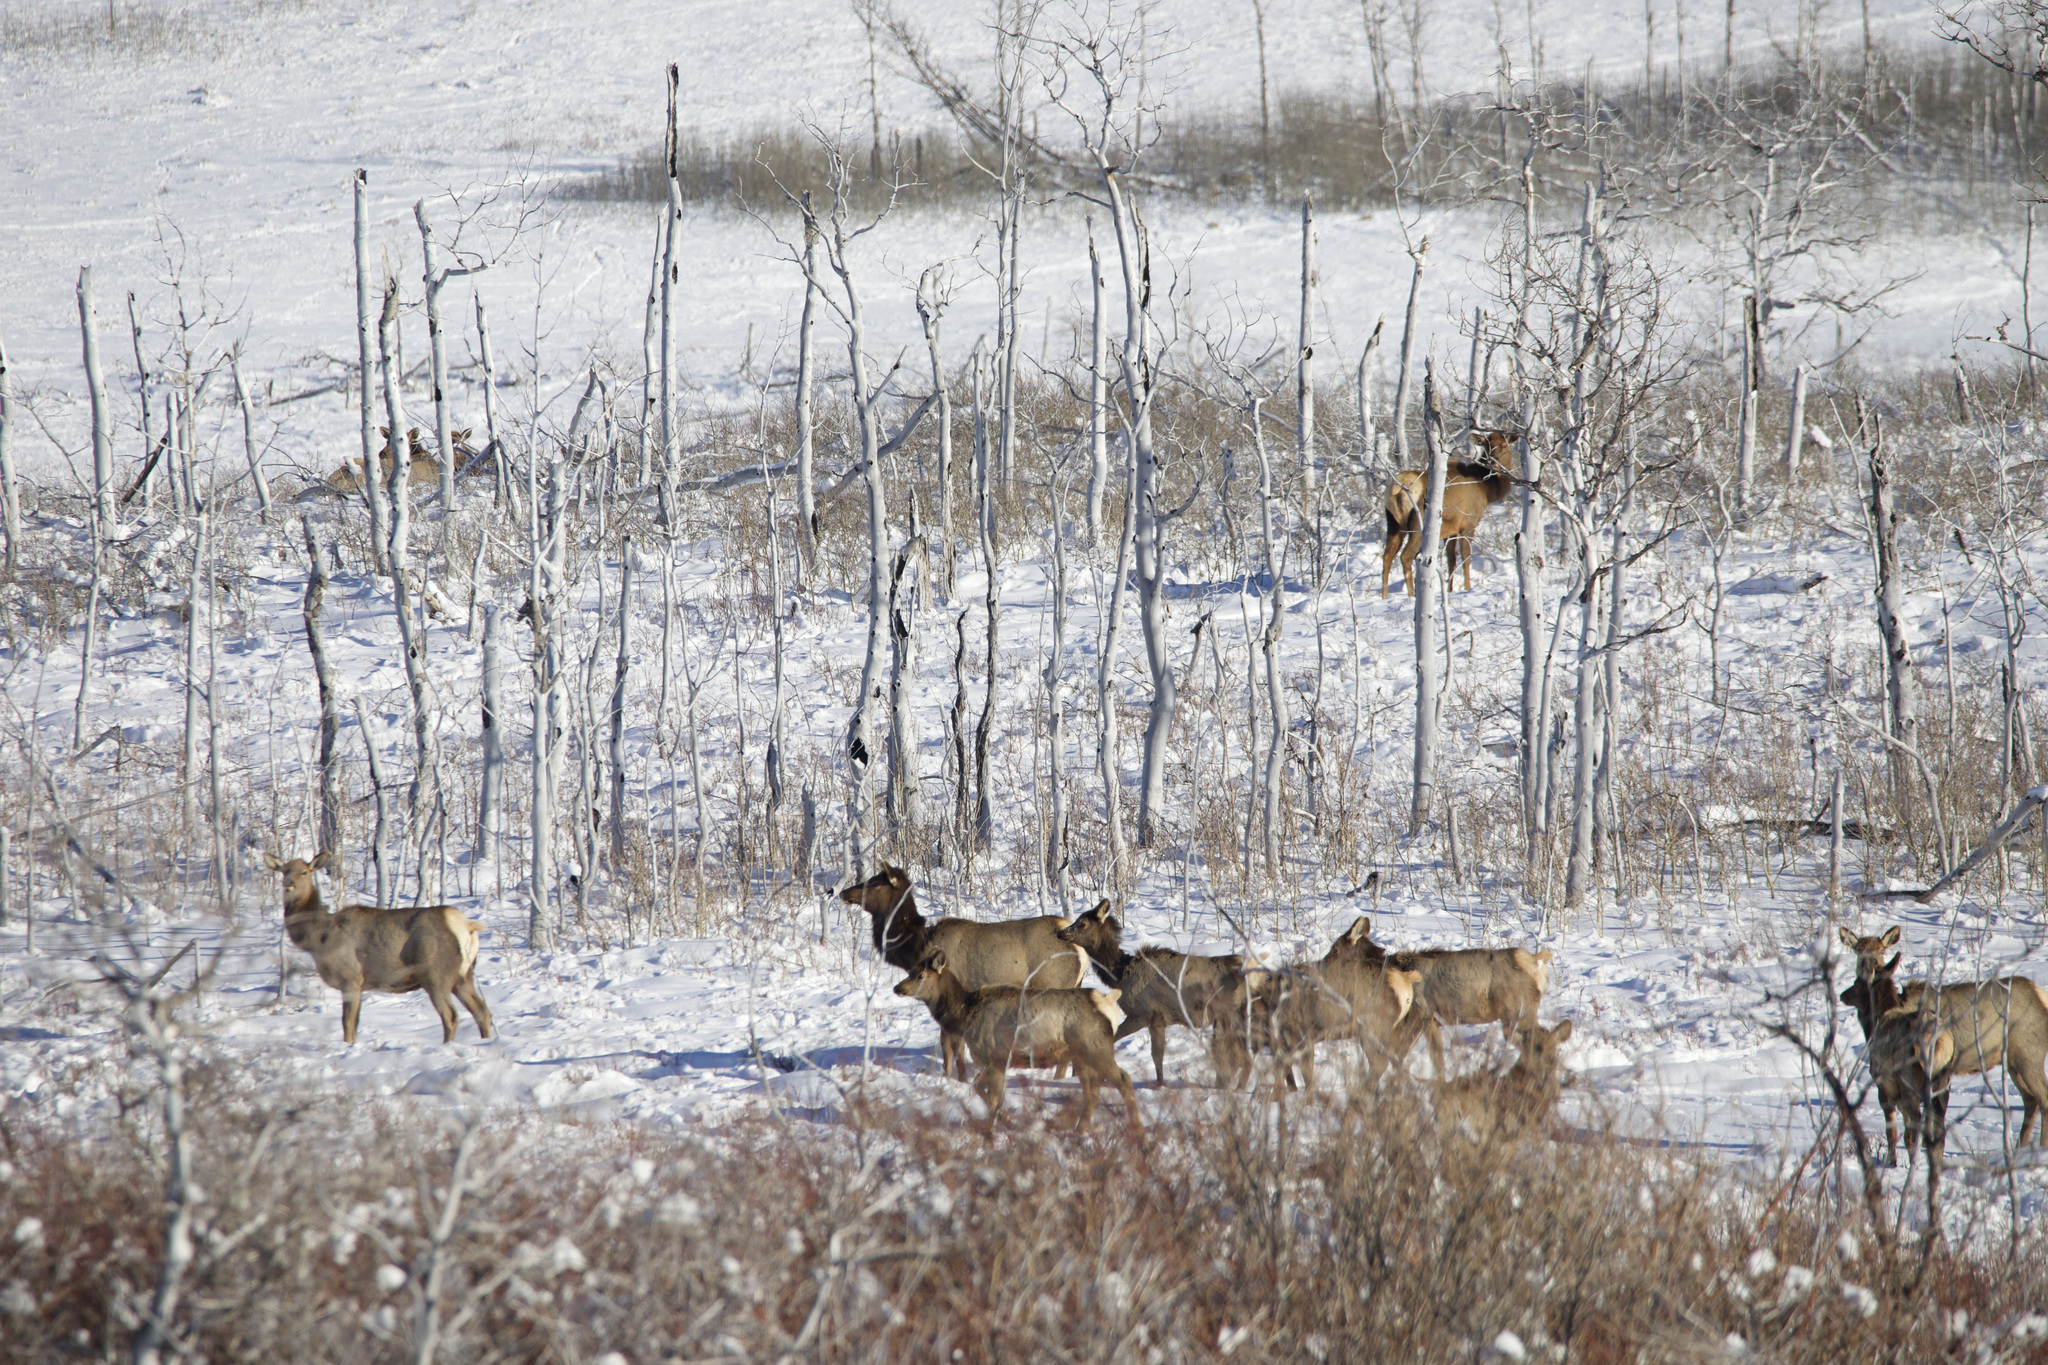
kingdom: Animalia
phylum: Chordata
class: Mammalia
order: Artiodactyla
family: Cervidae
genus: Cervus
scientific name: Cervus elaphus
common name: Red deer
